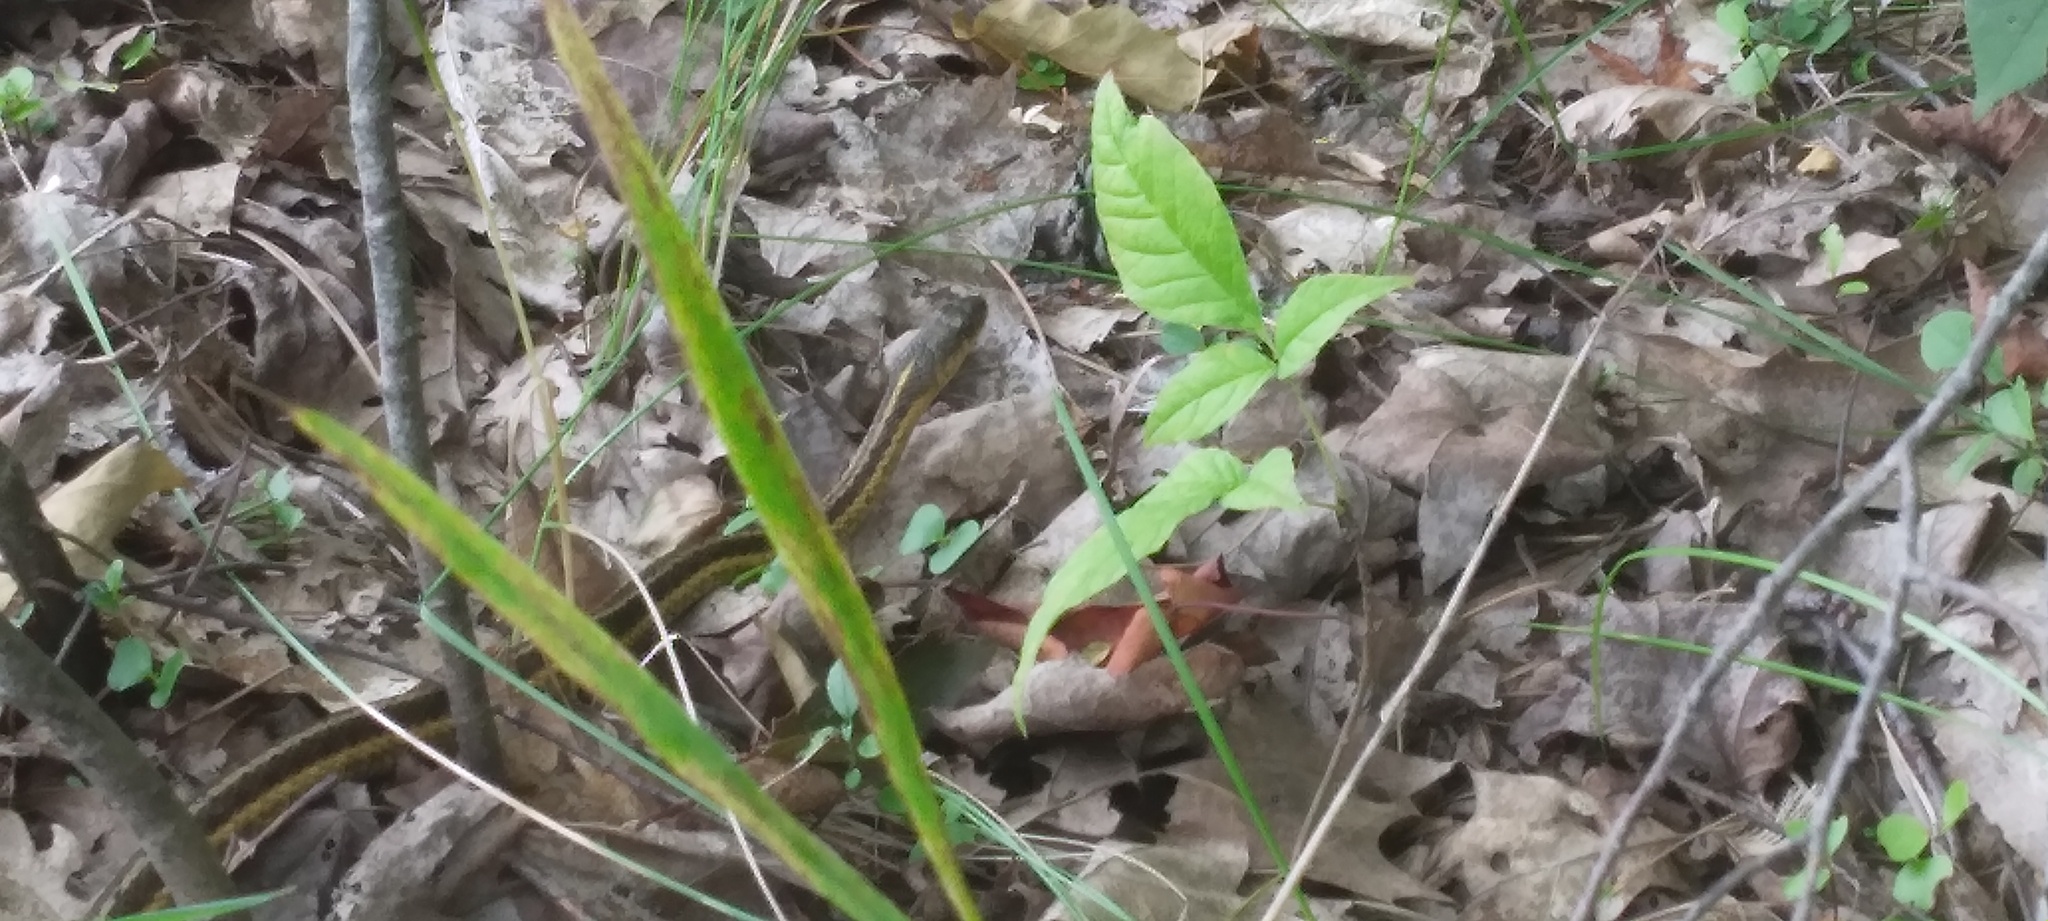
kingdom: Animalia
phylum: Chordata
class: Squamata
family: Colubridae
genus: Thamnophis
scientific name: Thamnophis sirtalis
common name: Common garter snake
